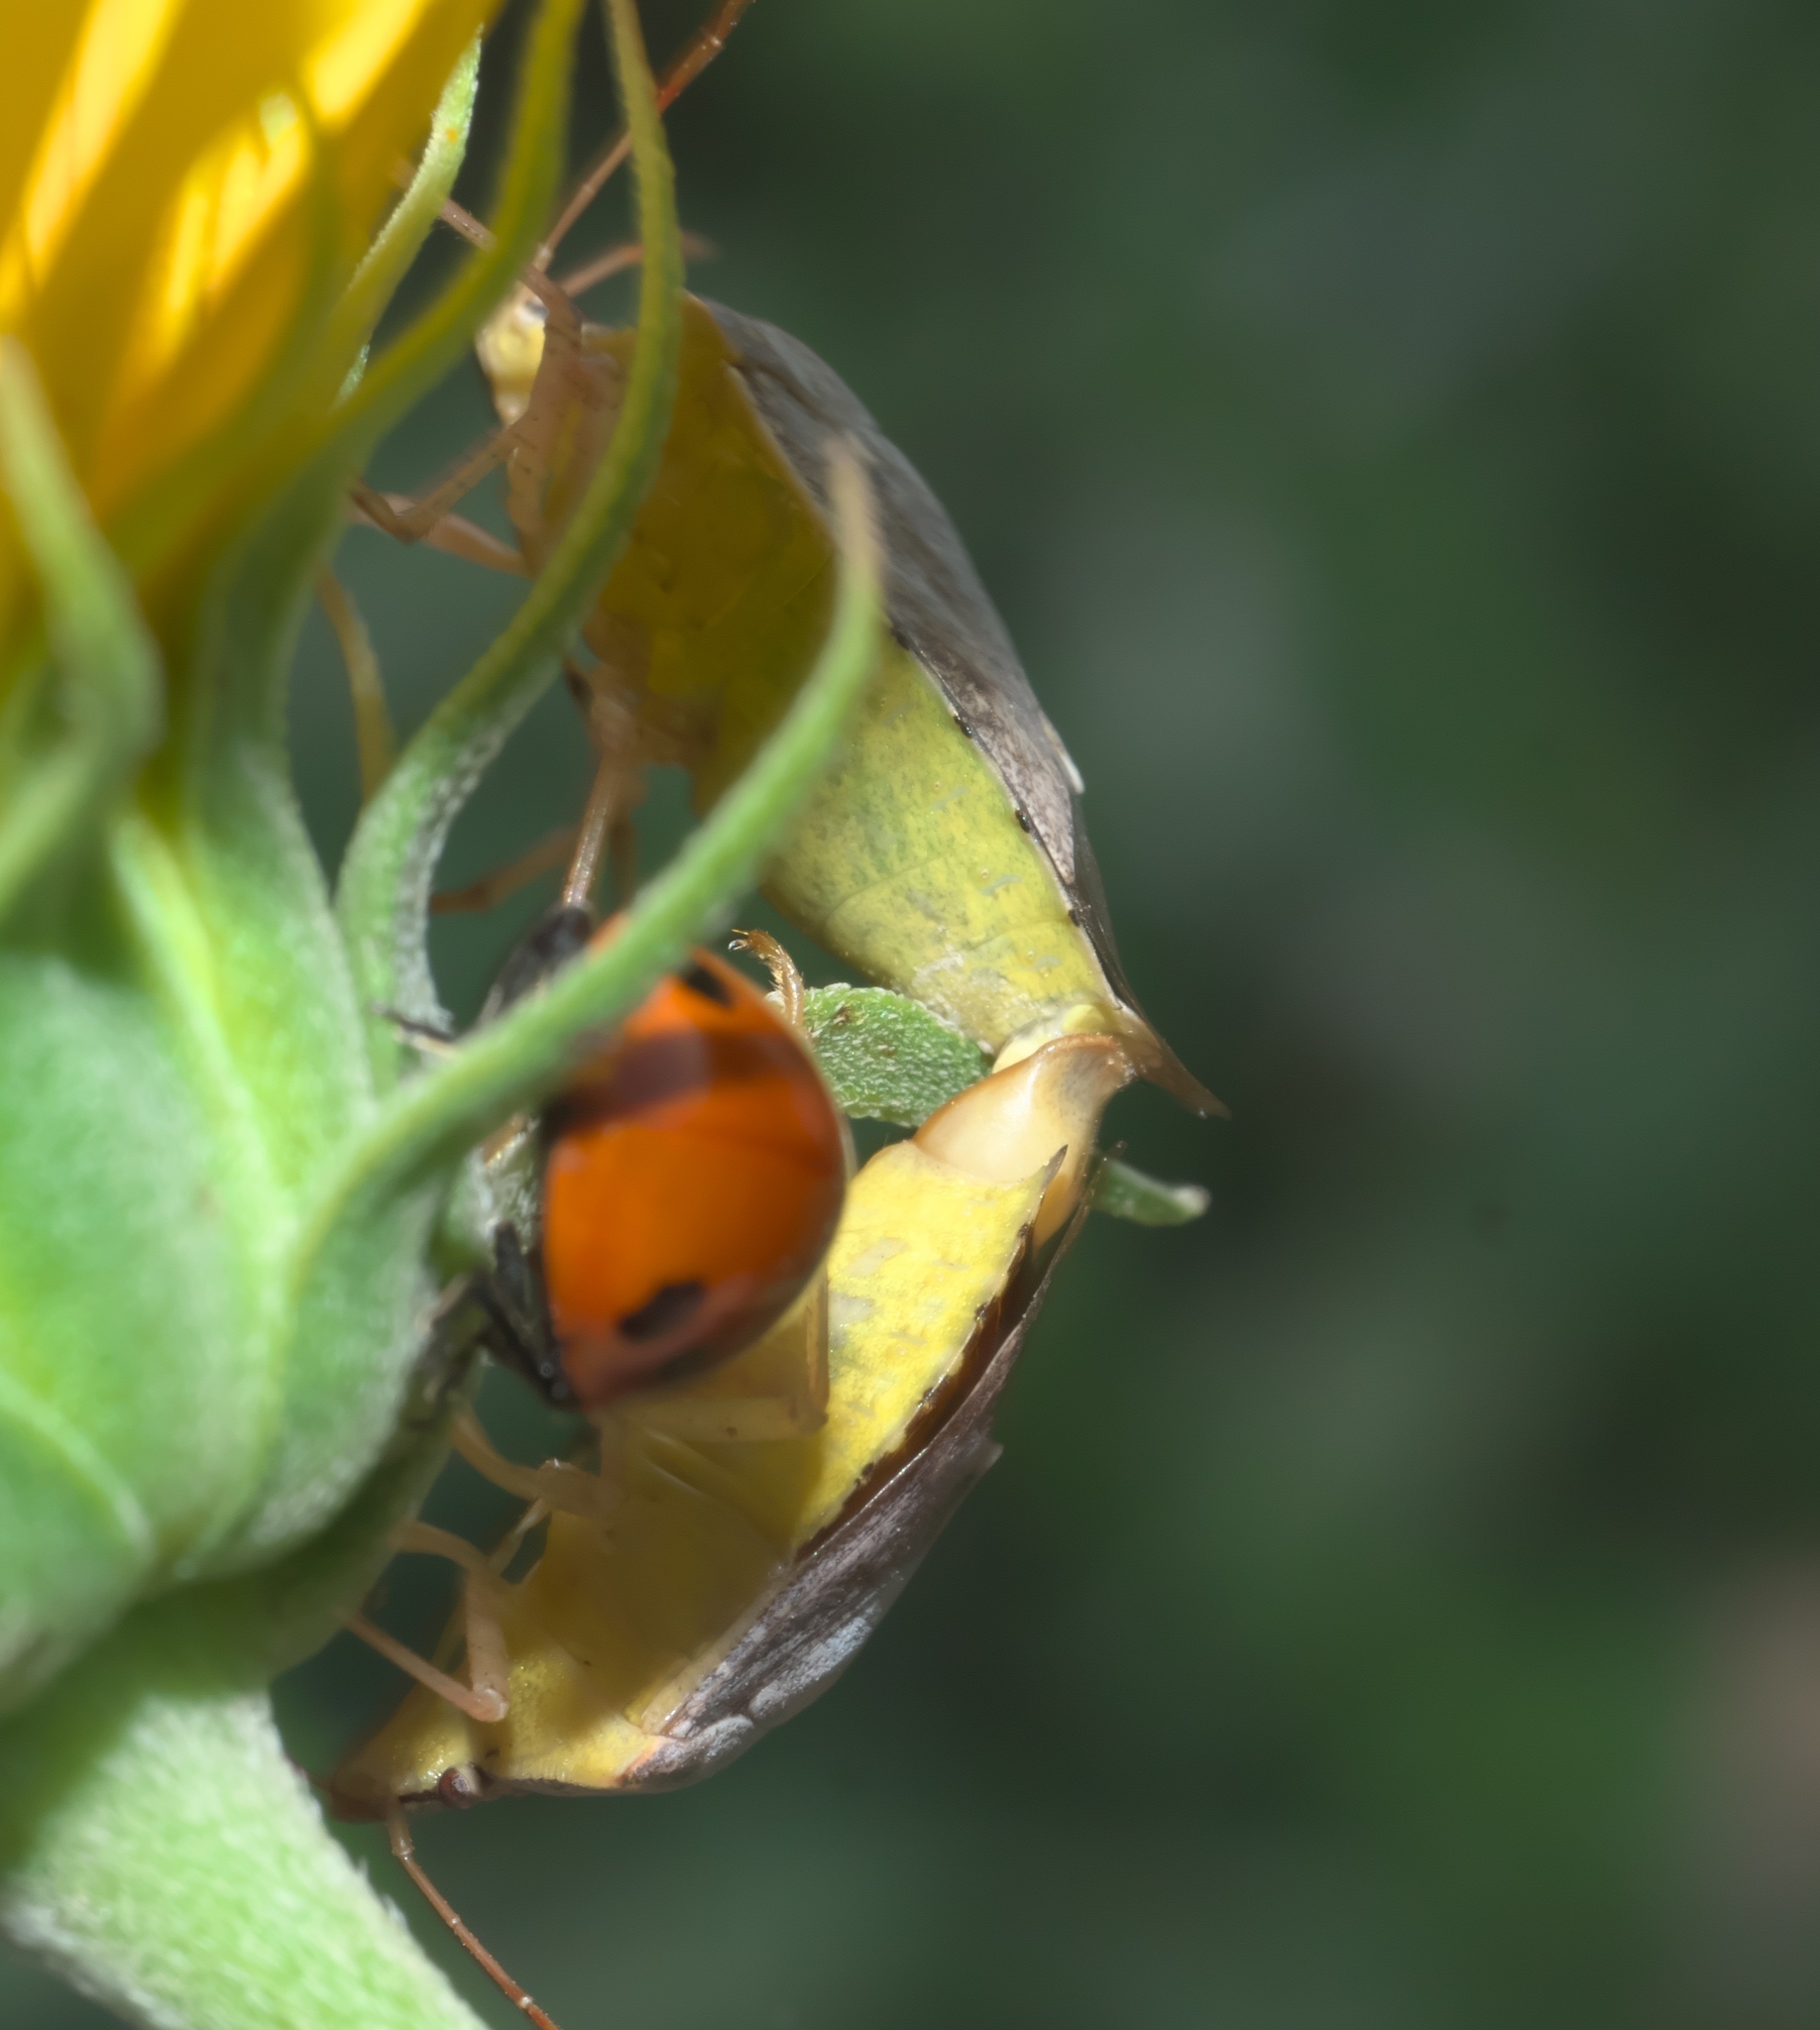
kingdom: Animalia
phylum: Arthropoda
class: Insecta
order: Hemiptera
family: Pentatomidae
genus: Euschistus
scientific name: Euschistus servus
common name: Brown stink bug
